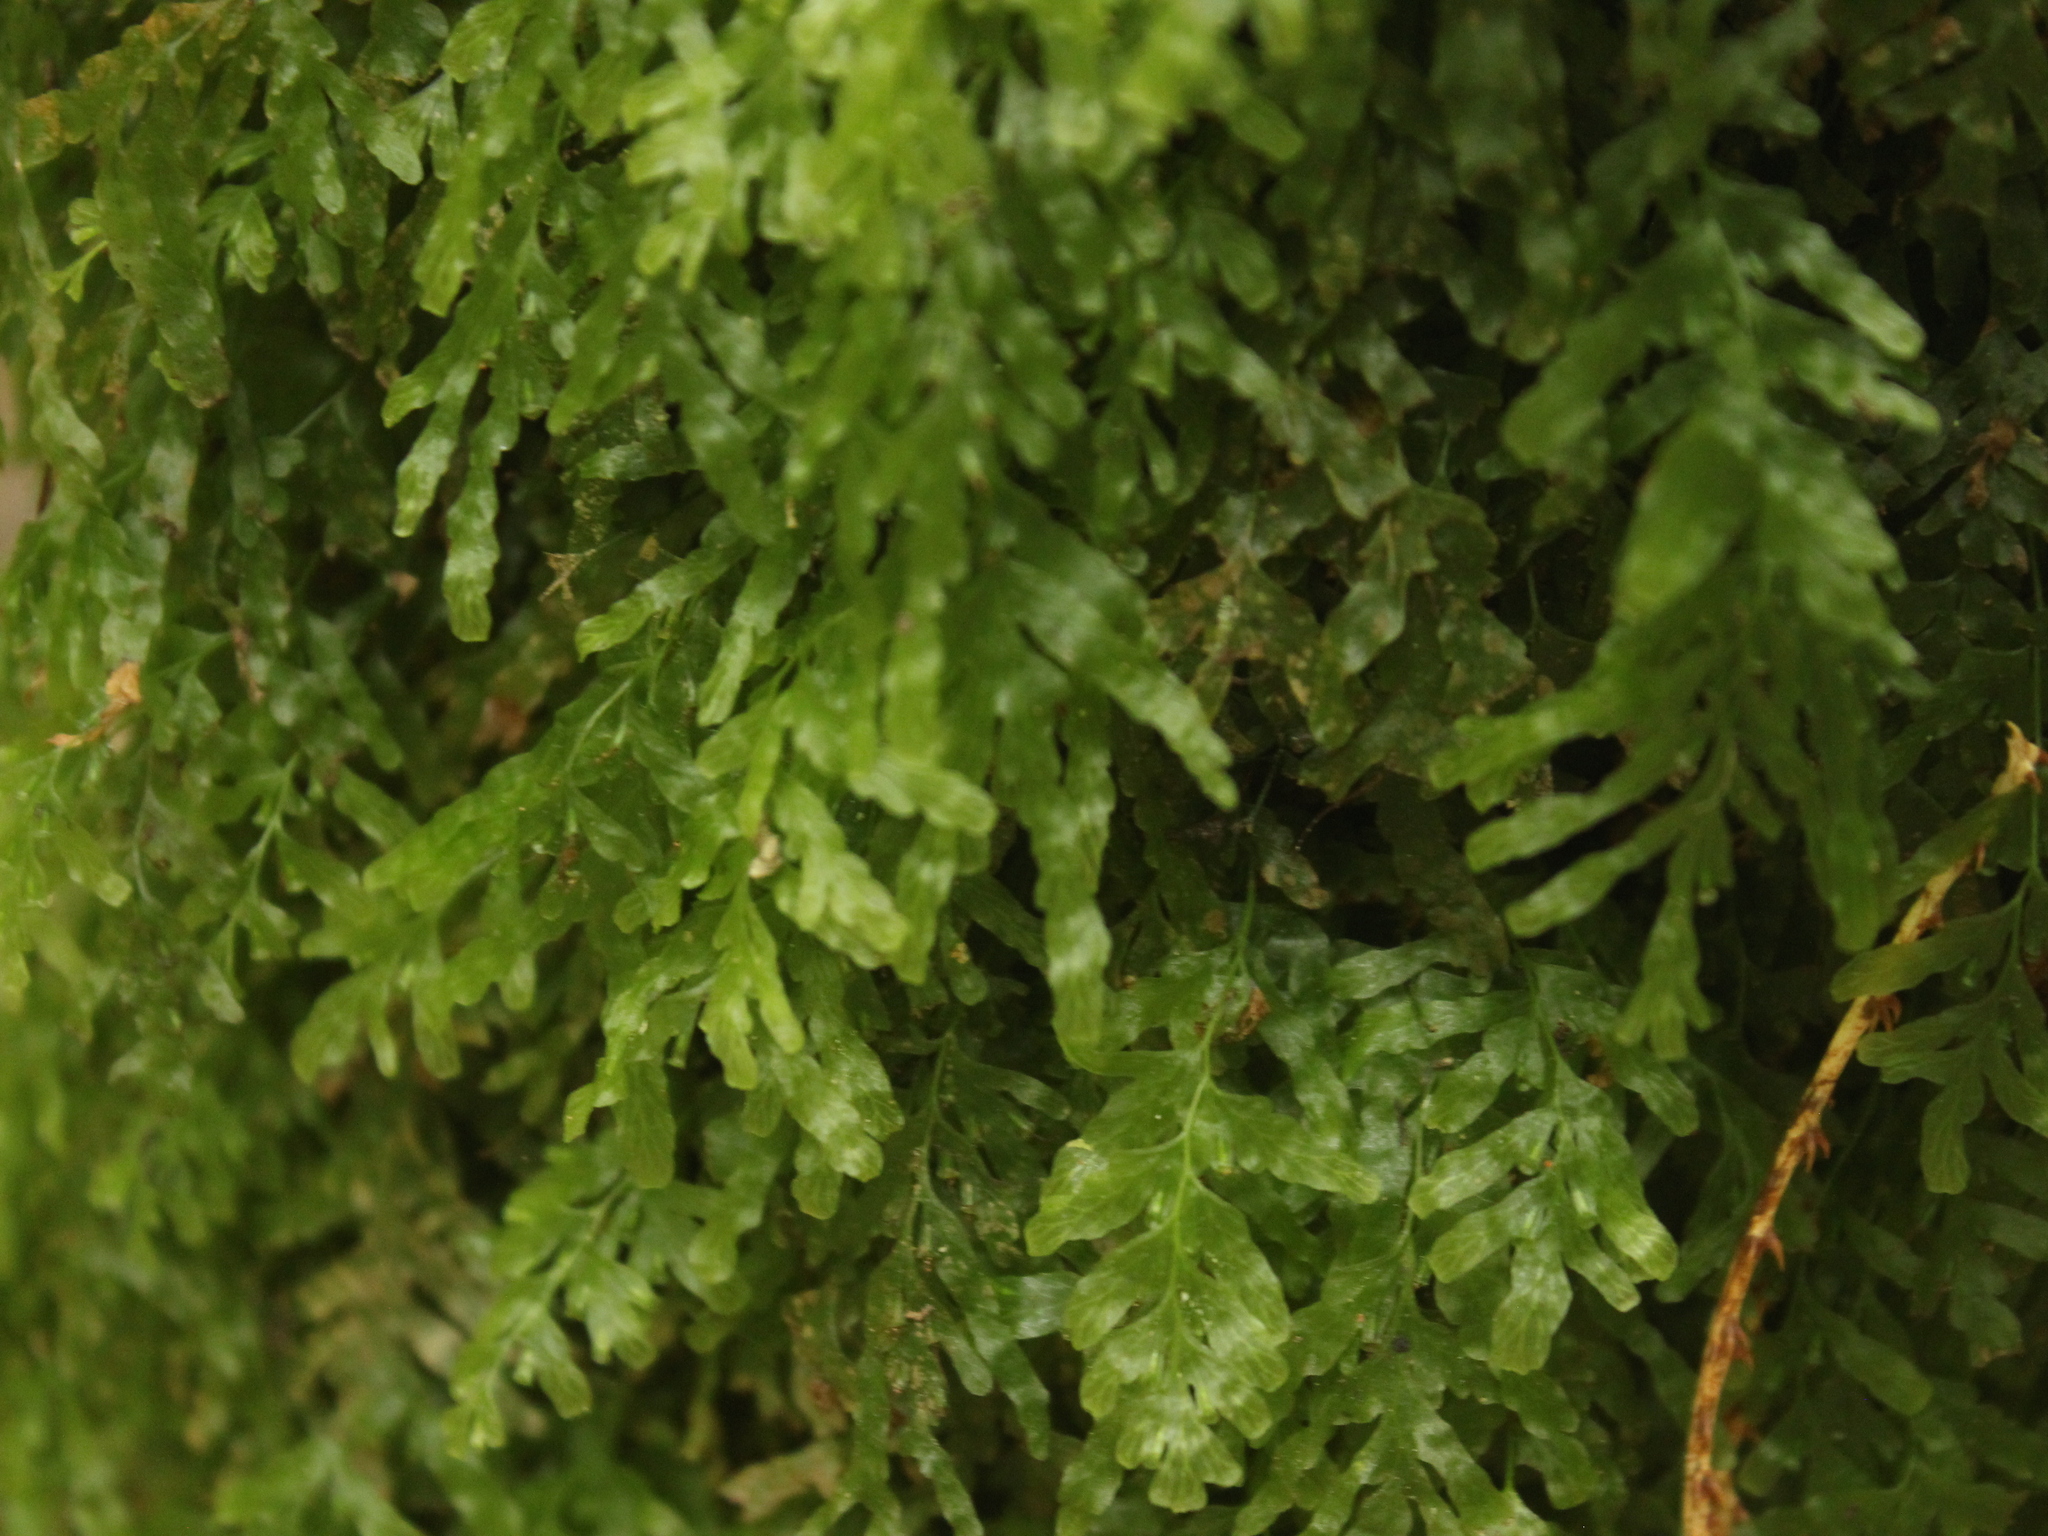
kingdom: Plantae
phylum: Tracheophyta
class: Polypodiopsida
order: Hymenophyllales
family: Hymenophyllaceae
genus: Polyphlebium
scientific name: Polyphlebium venosum
